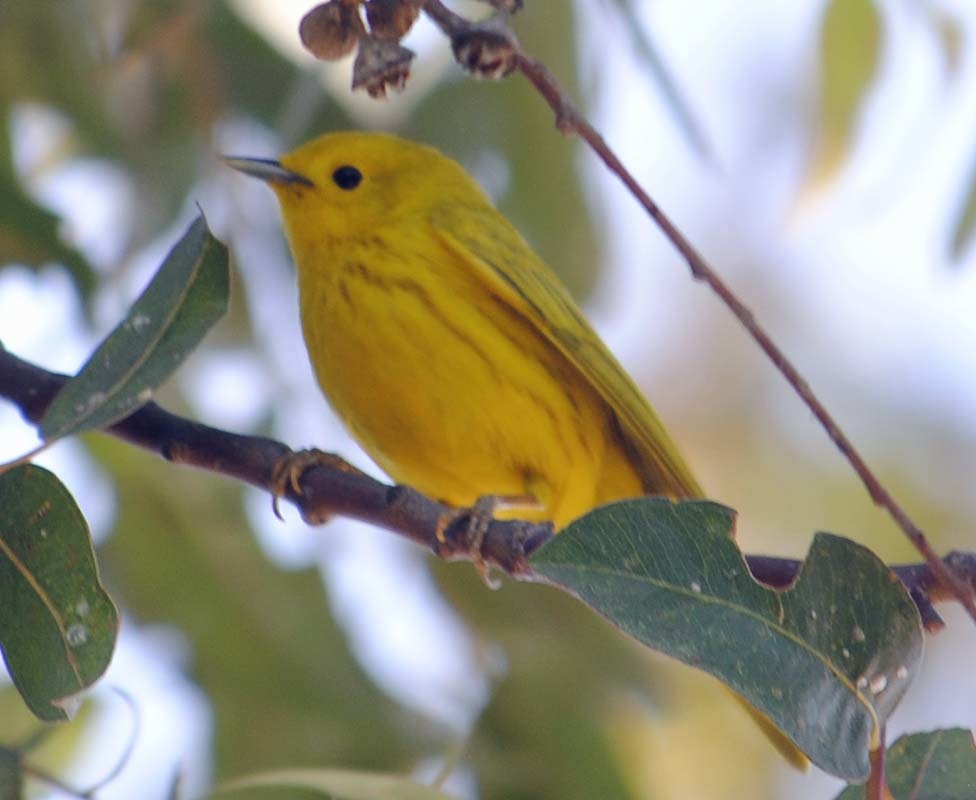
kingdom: Animalia
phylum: Chordata
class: Aves
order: Passeriformes
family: Parulidae
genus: Setophaga
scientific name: Setophaga petechia
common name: Yellow warbler
